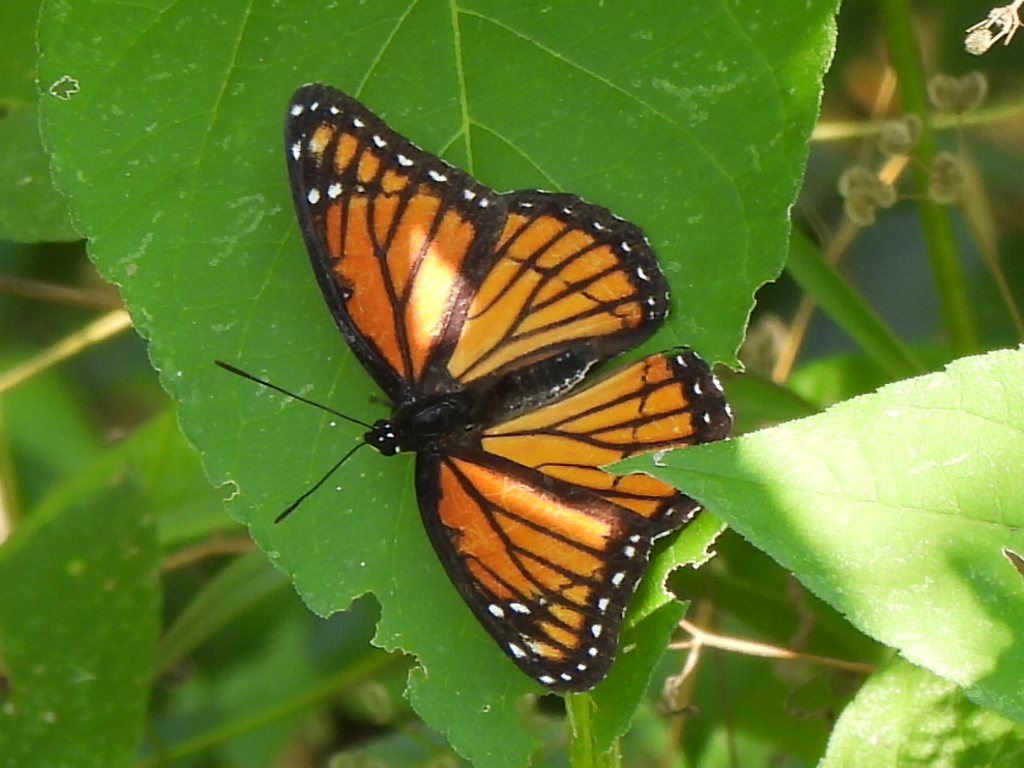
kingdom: Animalia
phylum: Arthropoda
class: Insecta
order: Lepidoptera
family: Nymphalidae
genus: Limenitis
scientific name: Limenitis archippus
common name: Viceroy
